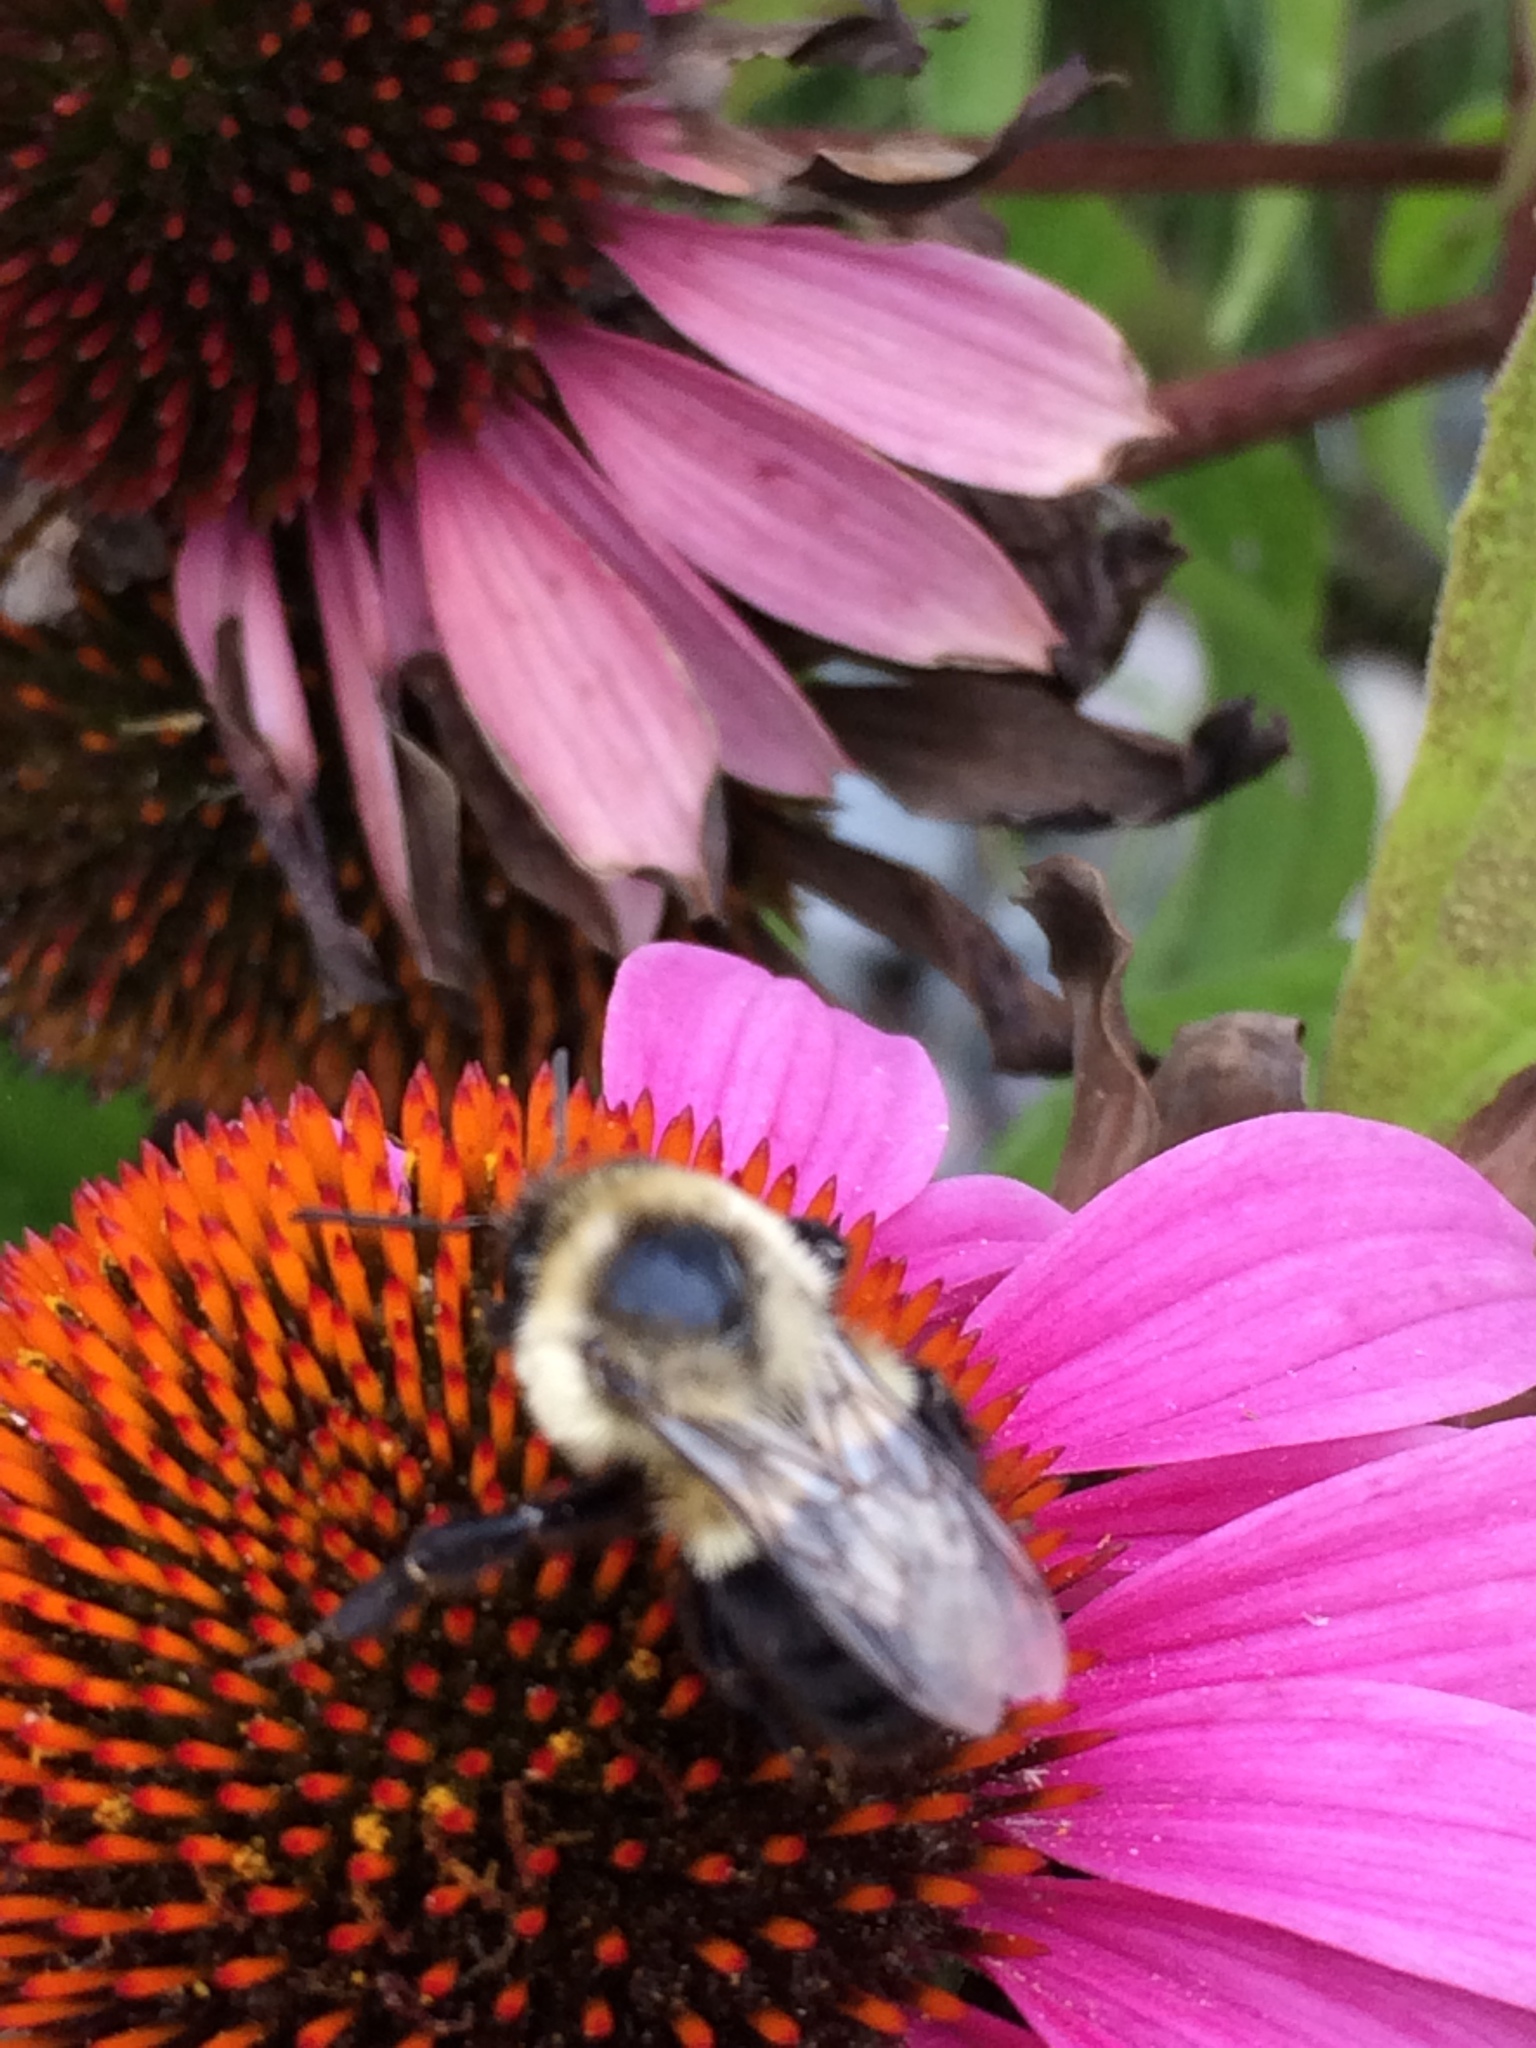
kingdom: Animalia
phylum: Arthropoda
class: Insecta
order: Hymenoptera
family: Apidae
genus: Bombus
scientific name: Bombus impatiens
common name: Common eastern bumble bee
